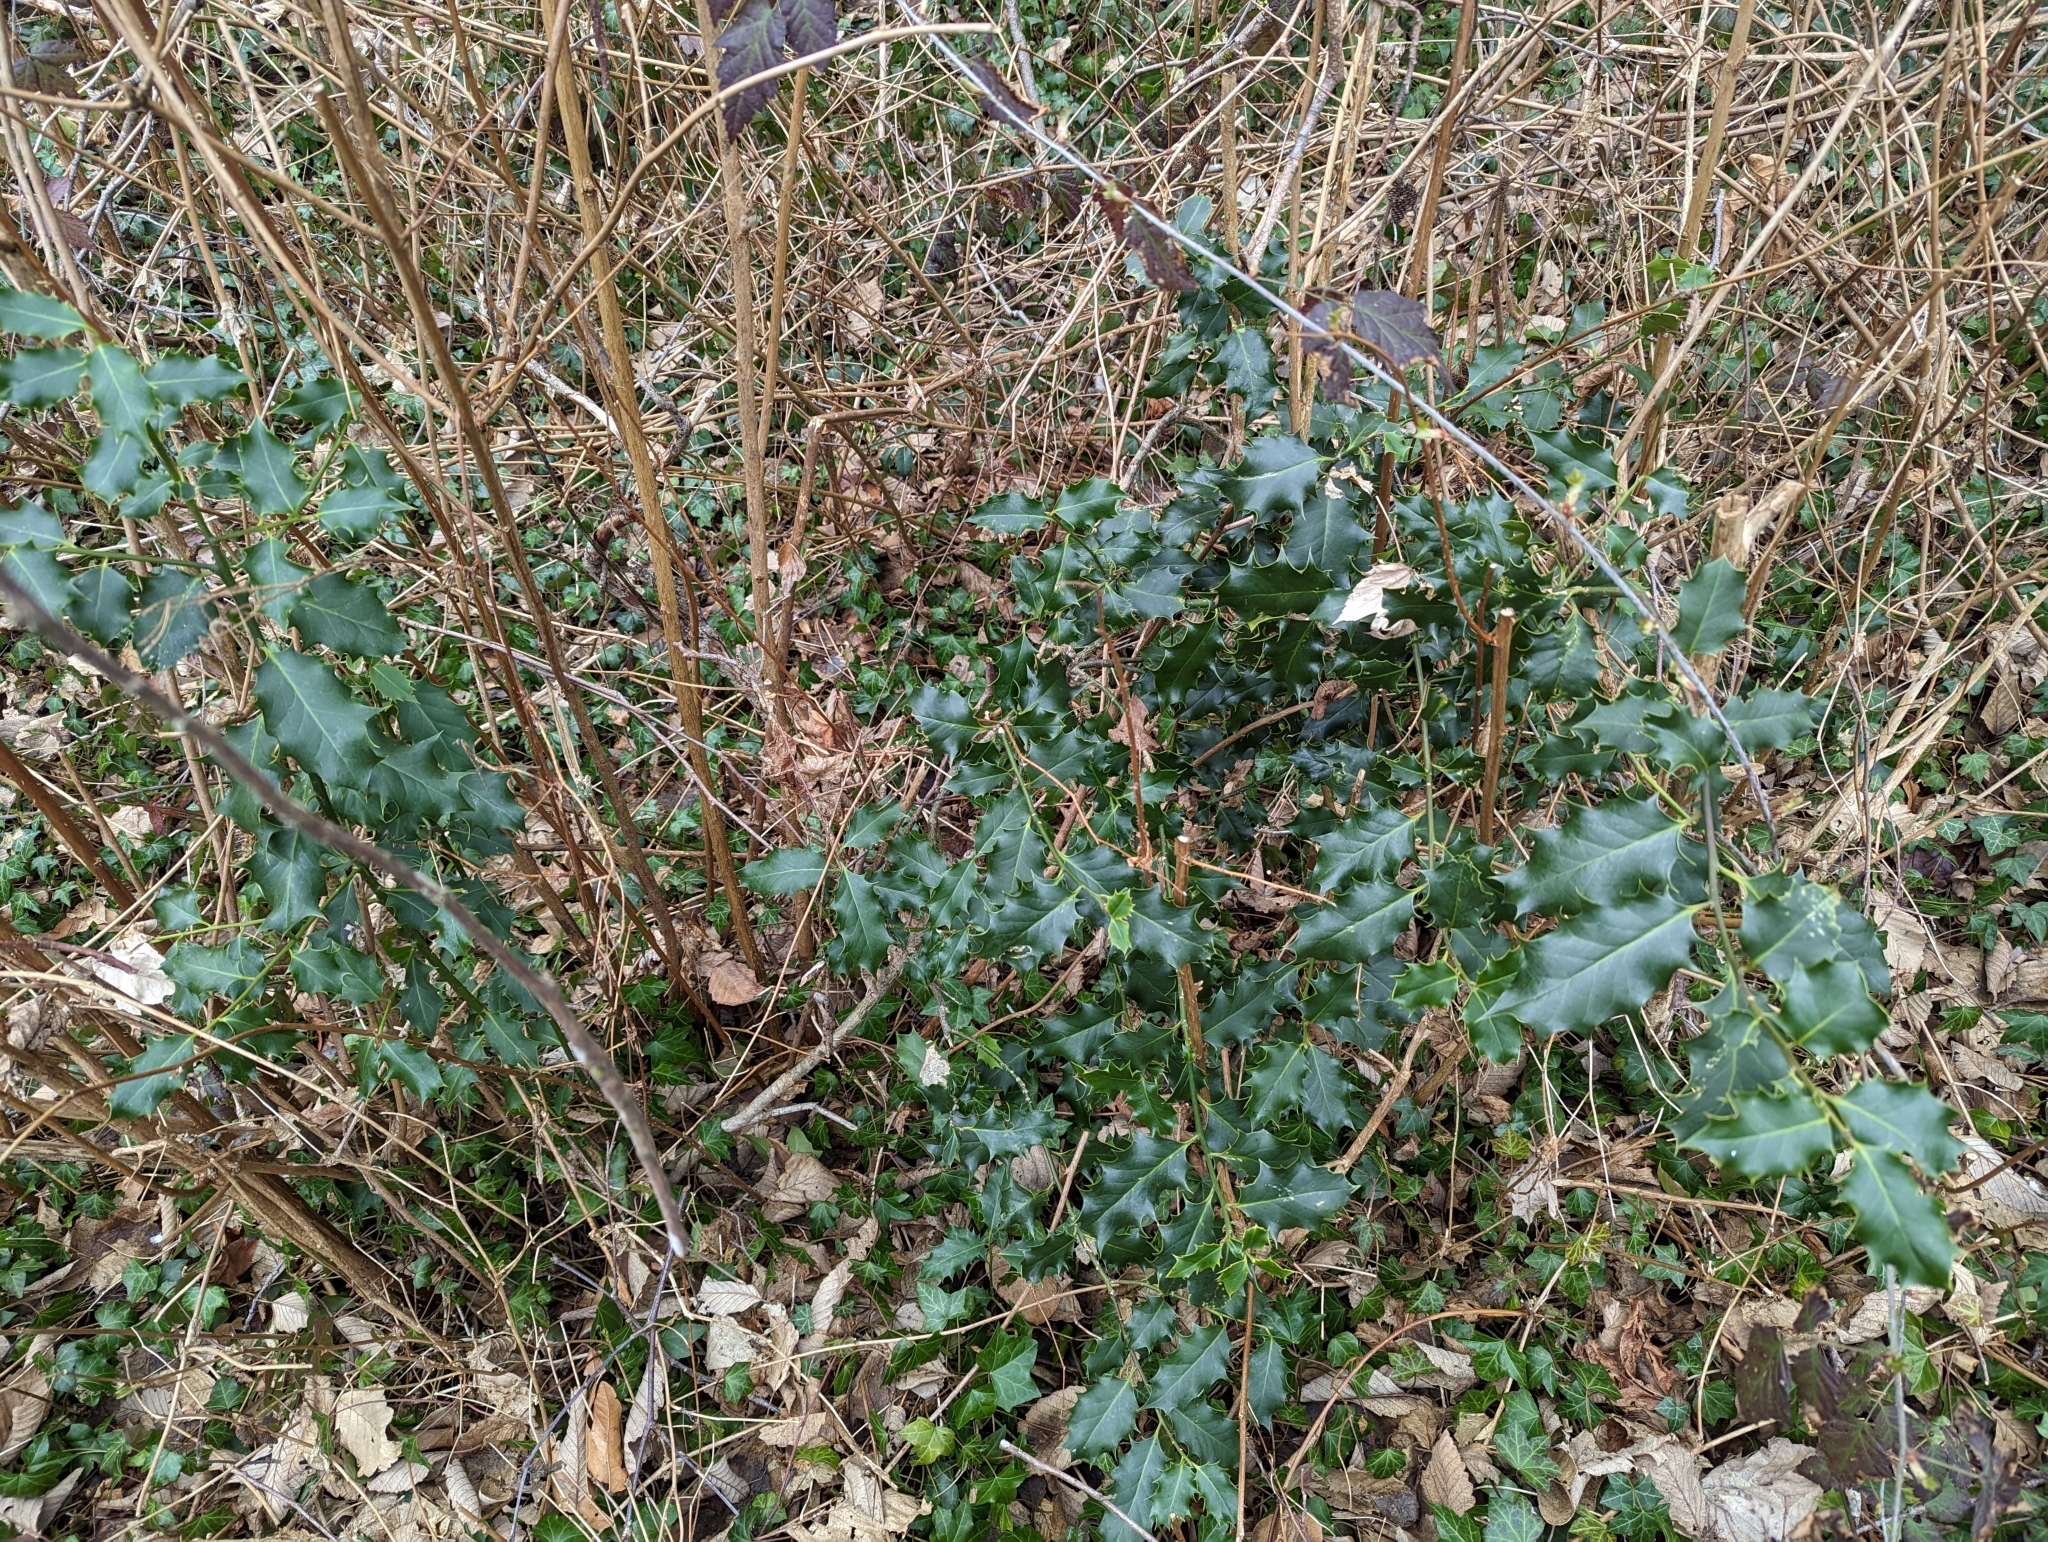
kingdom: Plantae
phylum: Tracheophyta
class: Magnoliopsida
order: Aquifoliales
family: Aquifoliaceae
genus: Ilex
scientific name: Ilex aquifolium
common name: English holly
